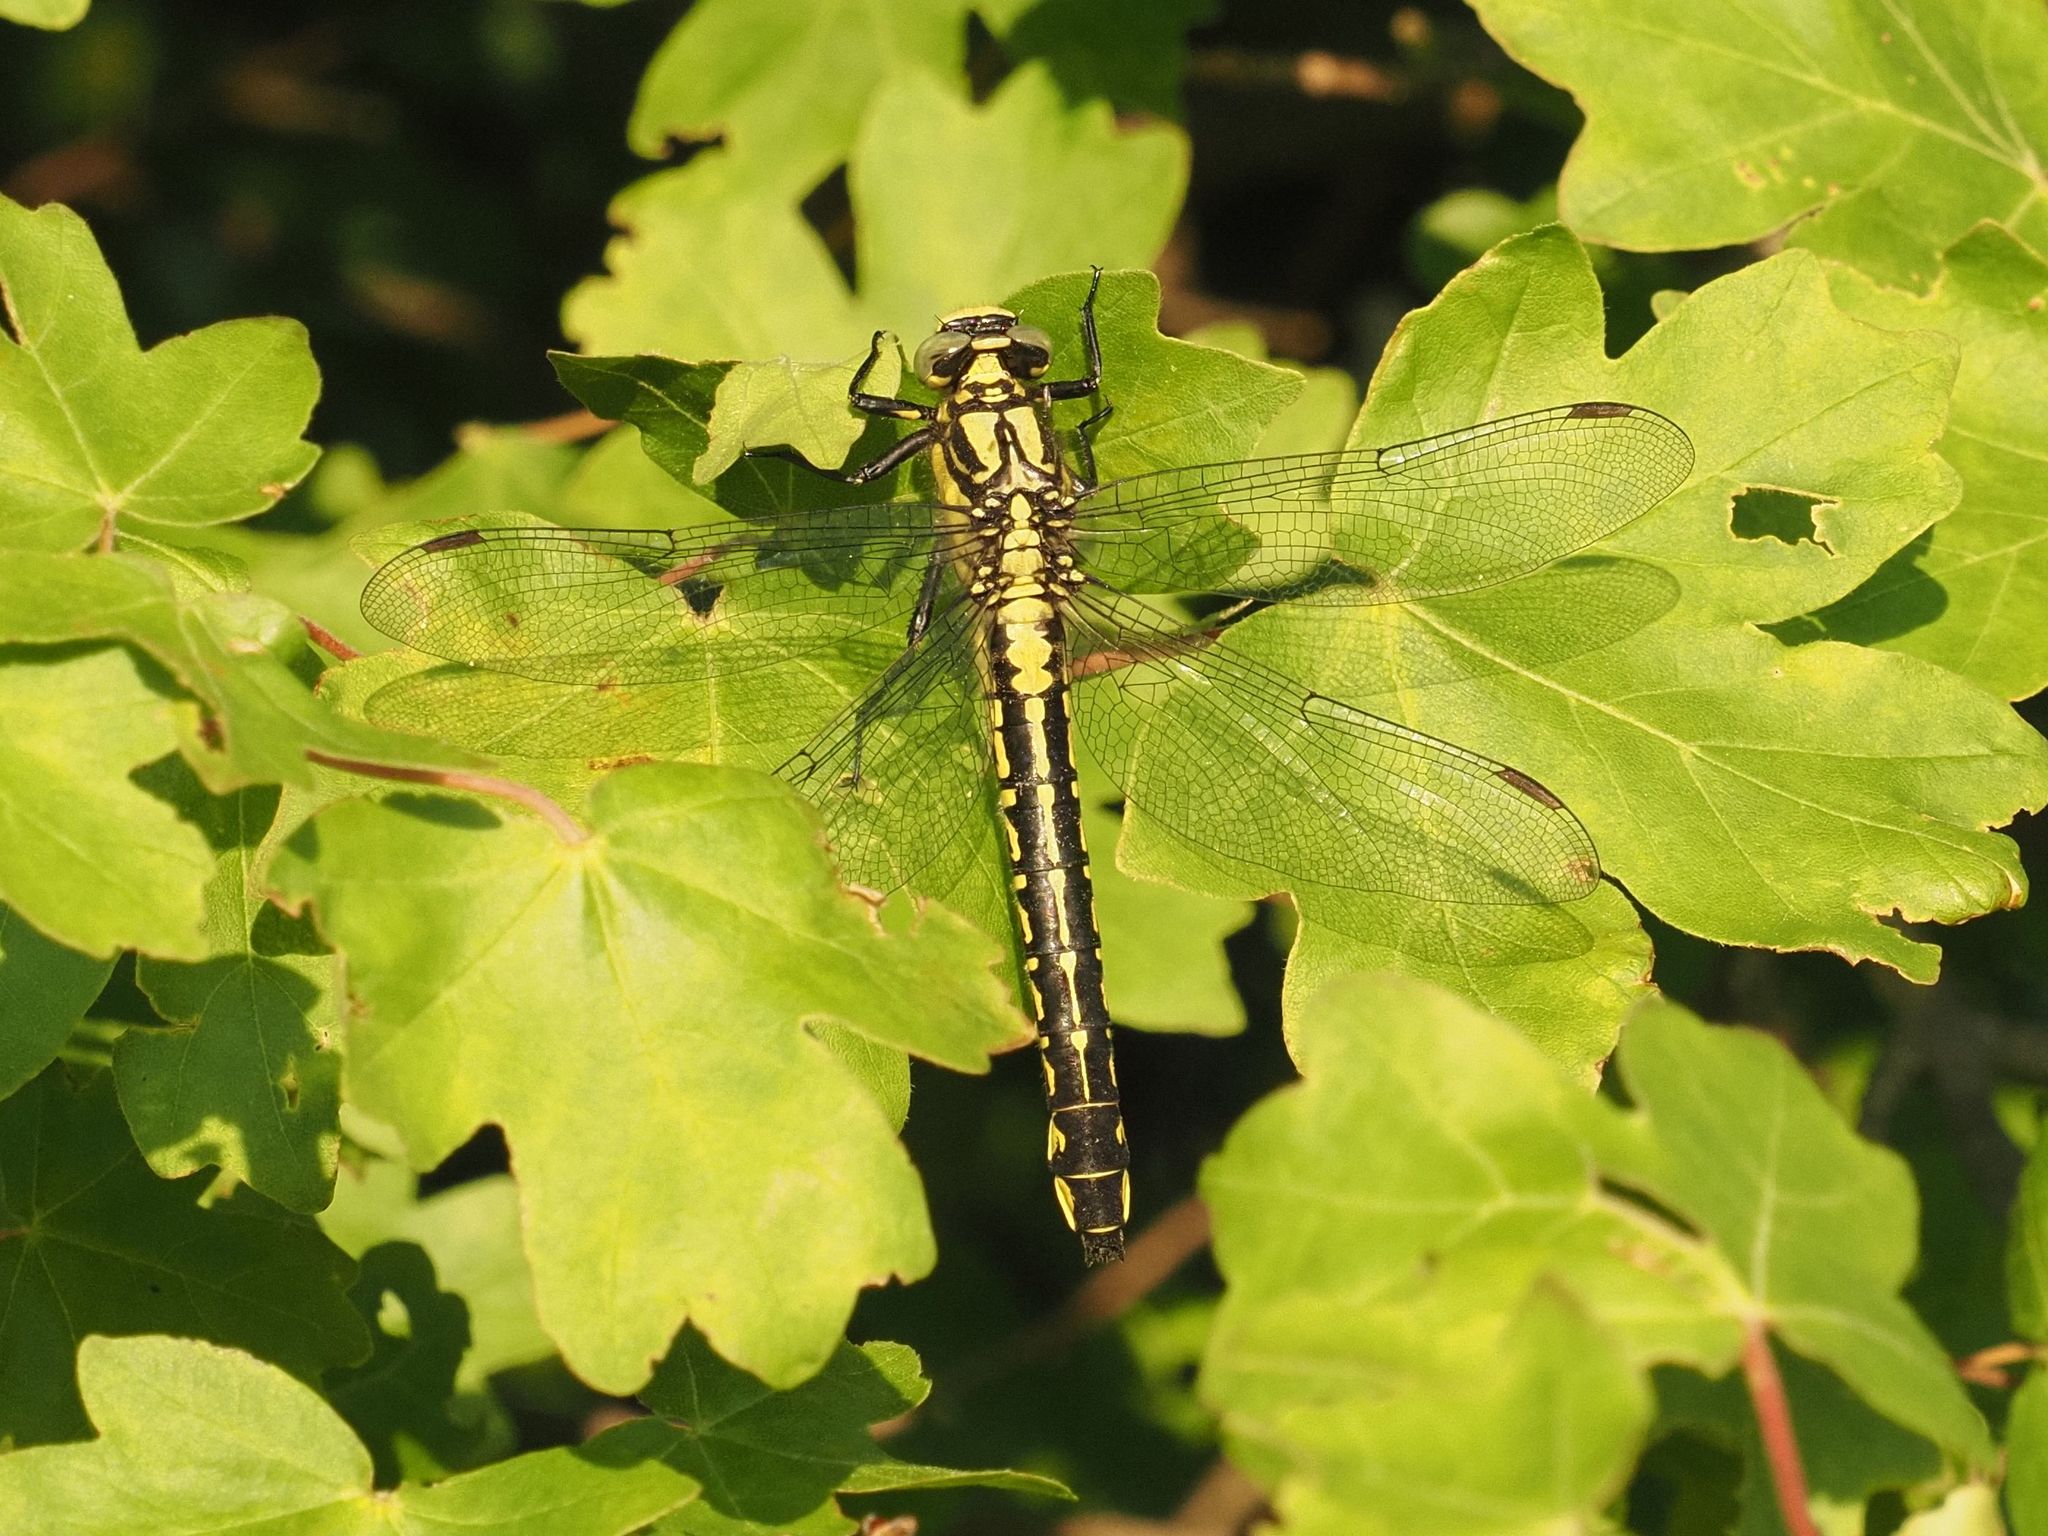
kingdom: Animalia
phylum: Arthropoda
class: Insecta
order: Odonata
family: Gomphidae
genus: Gomphus
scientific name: Gomphus vulgatissimus
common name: Club-tailed dragonfly
